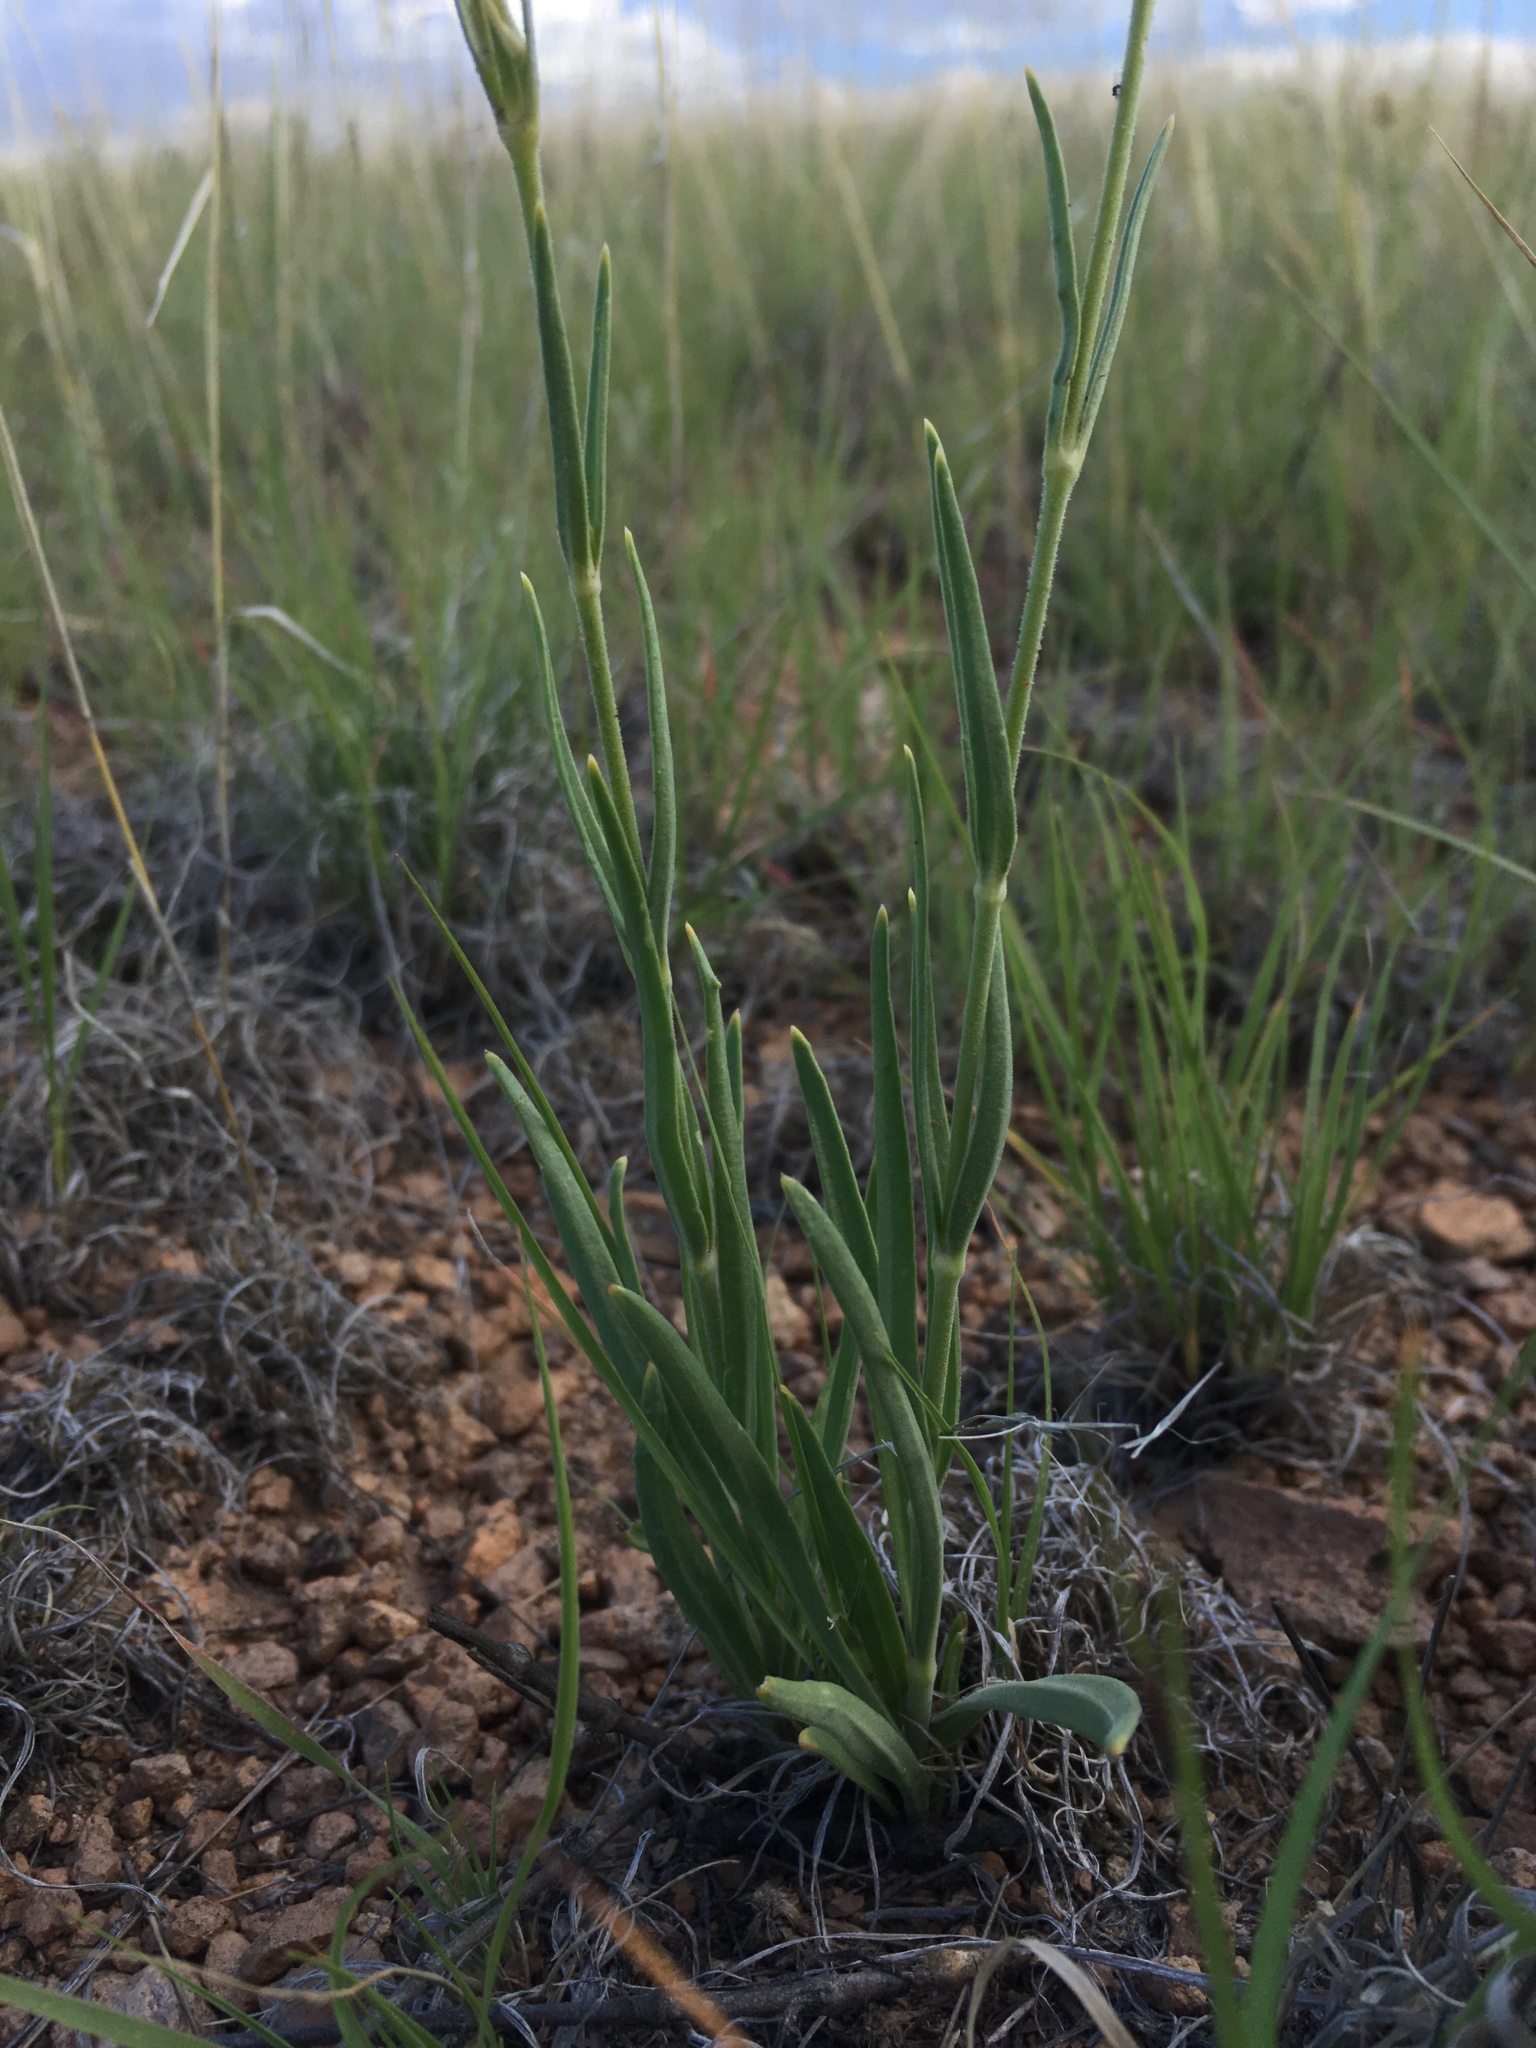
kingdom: Plantae
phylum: Tracheophyta
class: Magnoliopsida
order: Caryophyllales
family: Caryophyllaceae
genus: Silene
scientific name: Silene scouleri
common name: Scouler's campion
